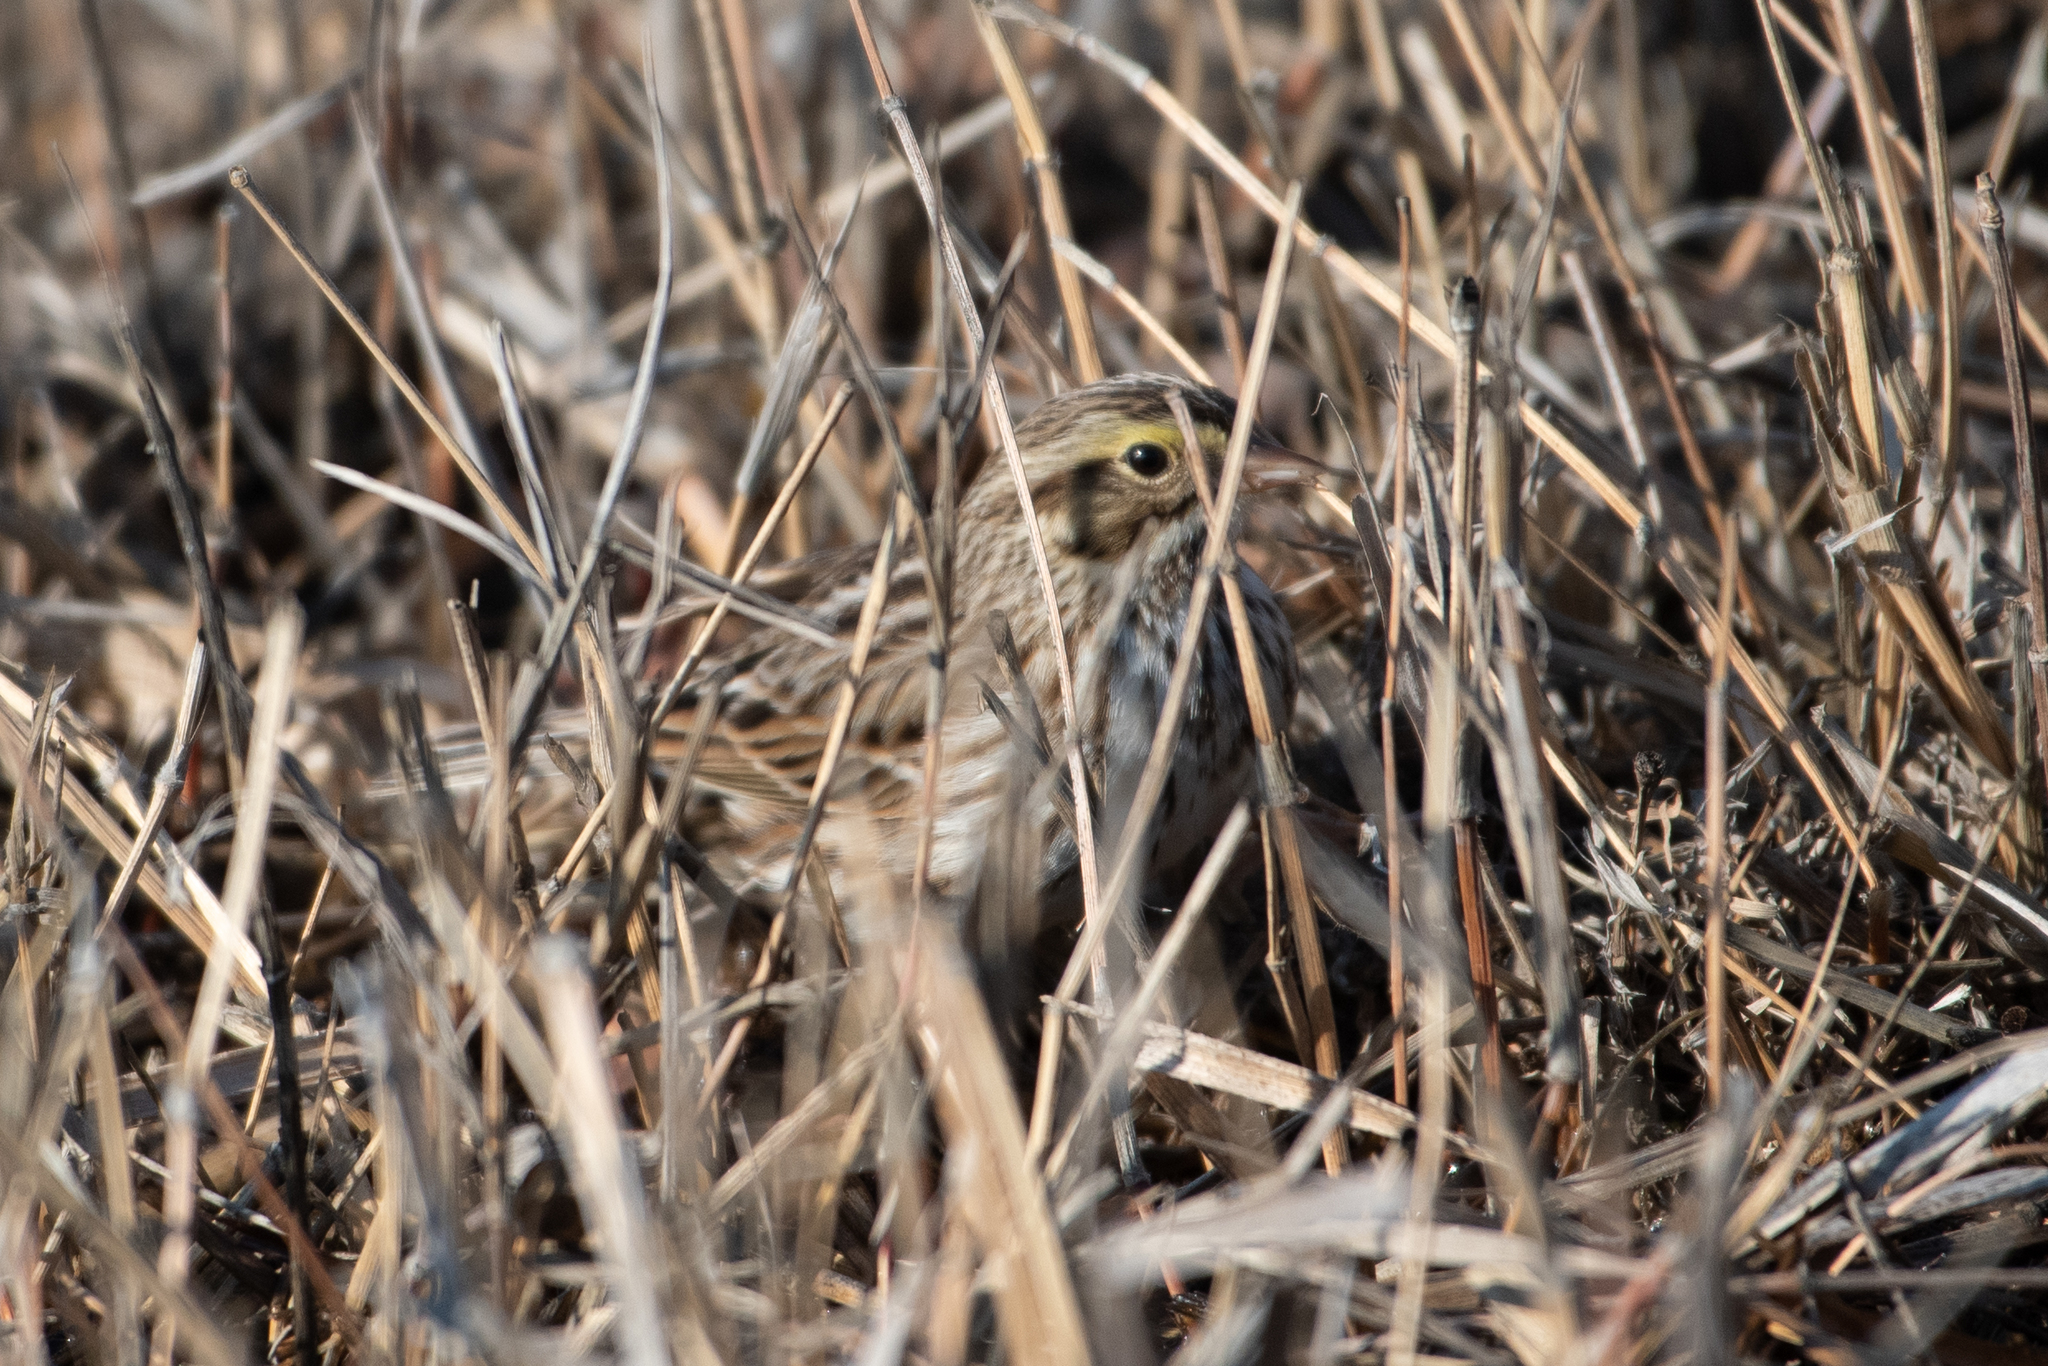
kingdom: Animalia
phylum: Chordata
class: Aves
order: Passeriformes
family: Passerellidae
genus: Passerculus
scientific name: Passerculus sandwichensis
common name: Savannah sparrow
